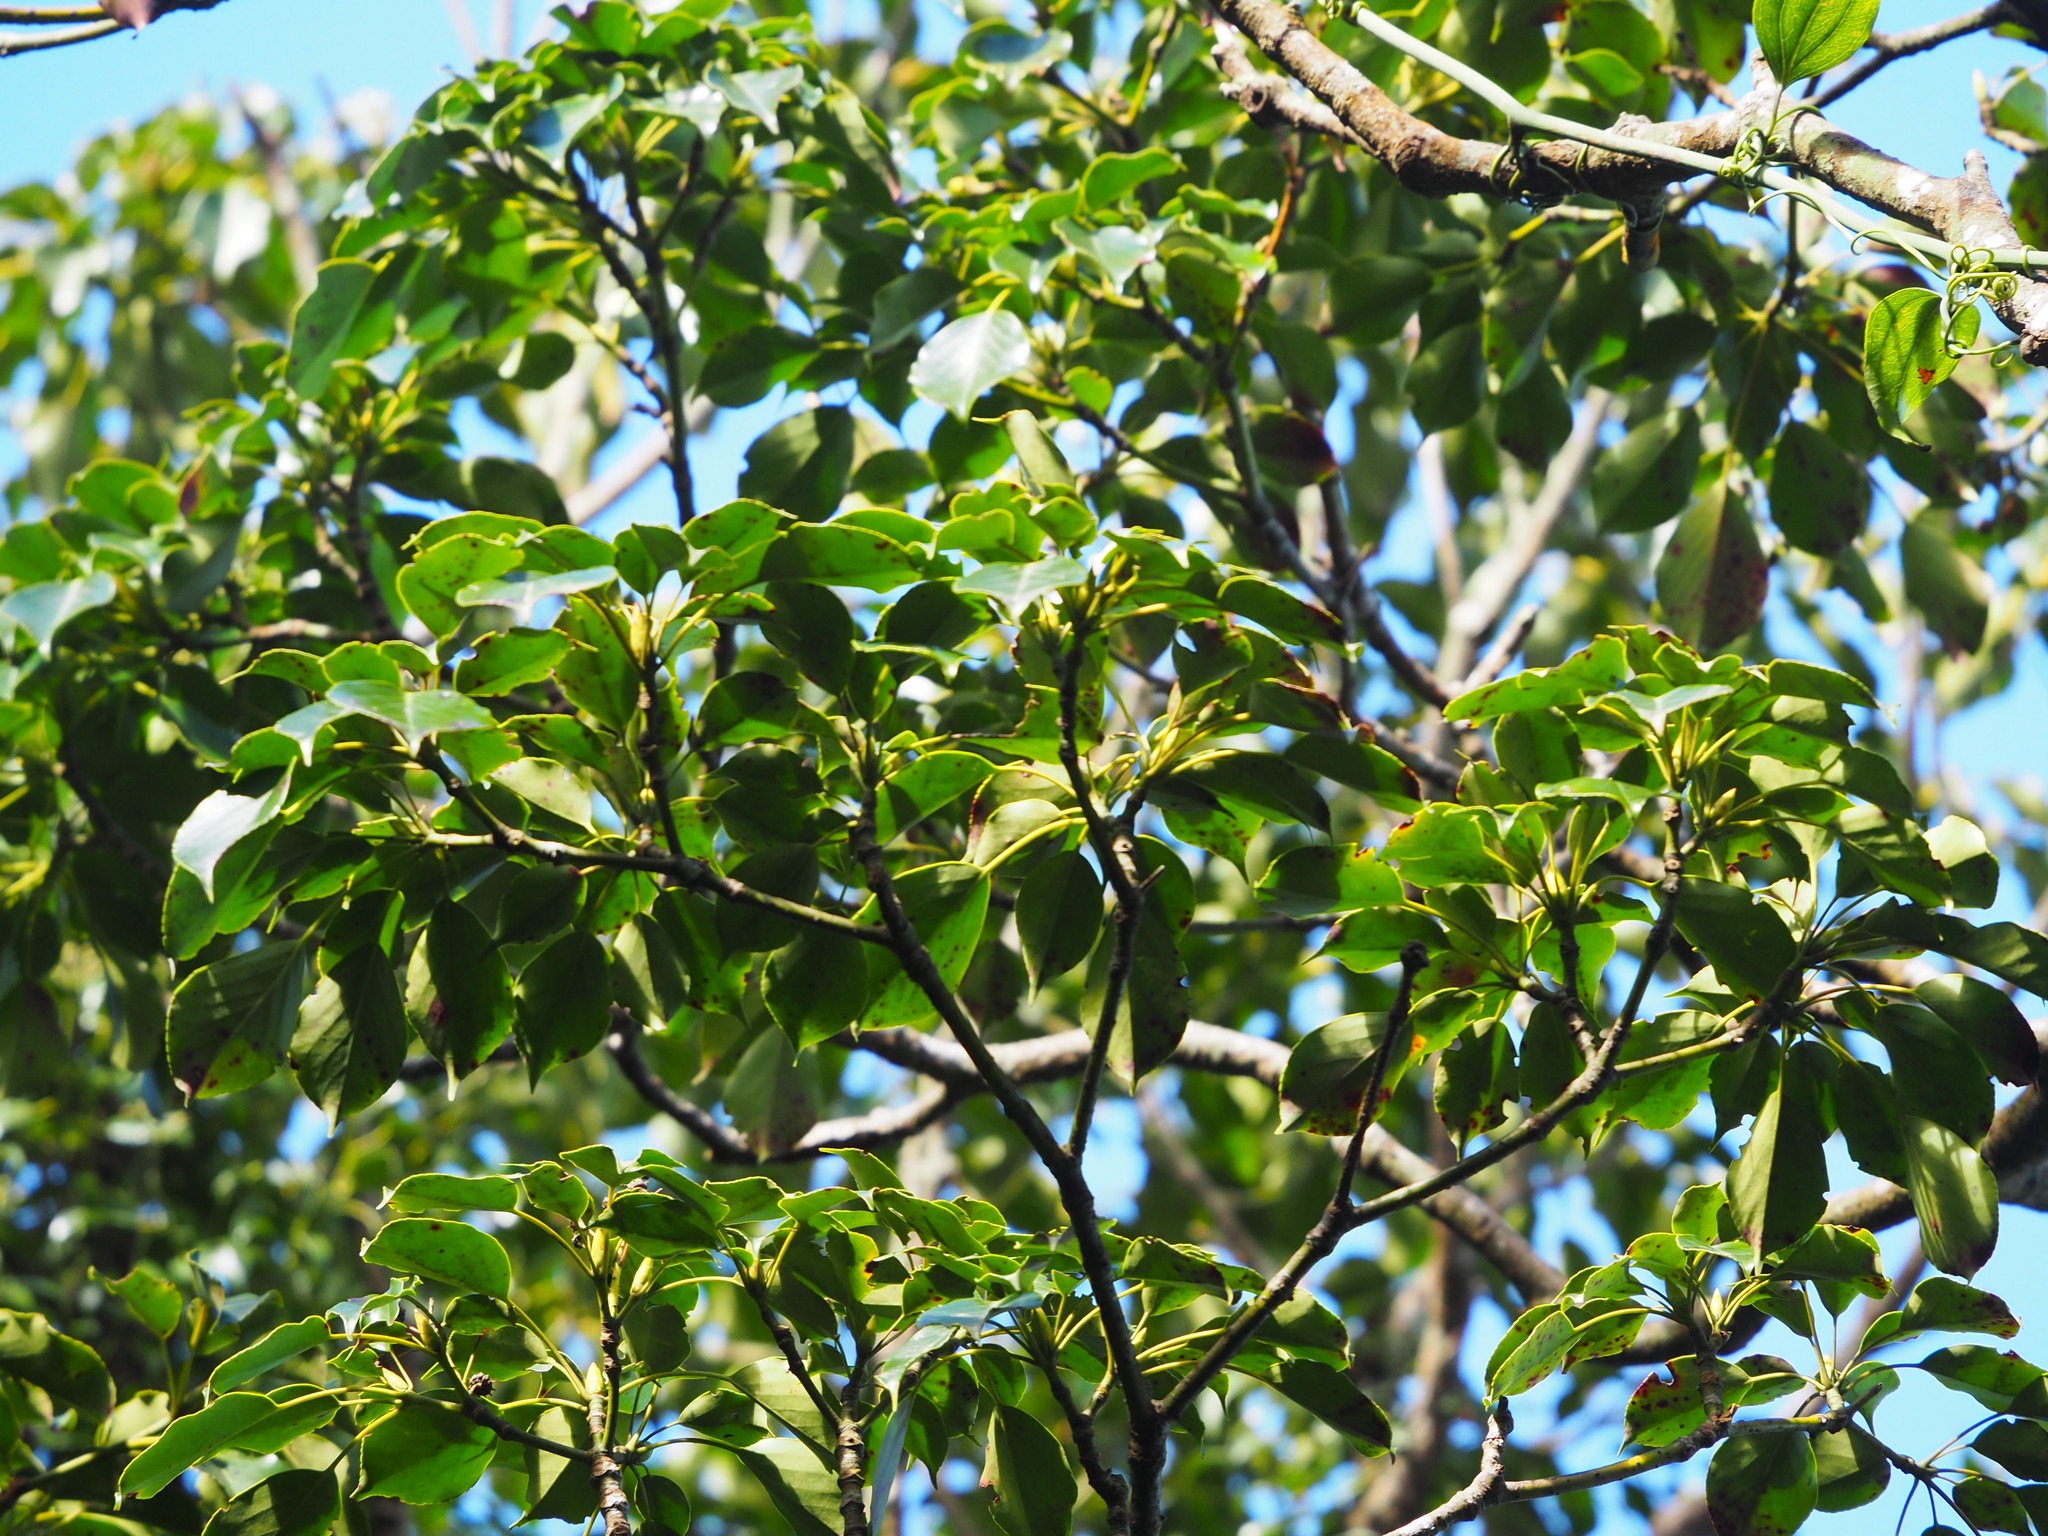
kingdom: Plantae
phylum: Tracheophyta
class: Magnoliopsida
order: Trochodendrales
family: Trochodendraceae
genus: Trochodendron
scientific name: Trochodendron aralioides
